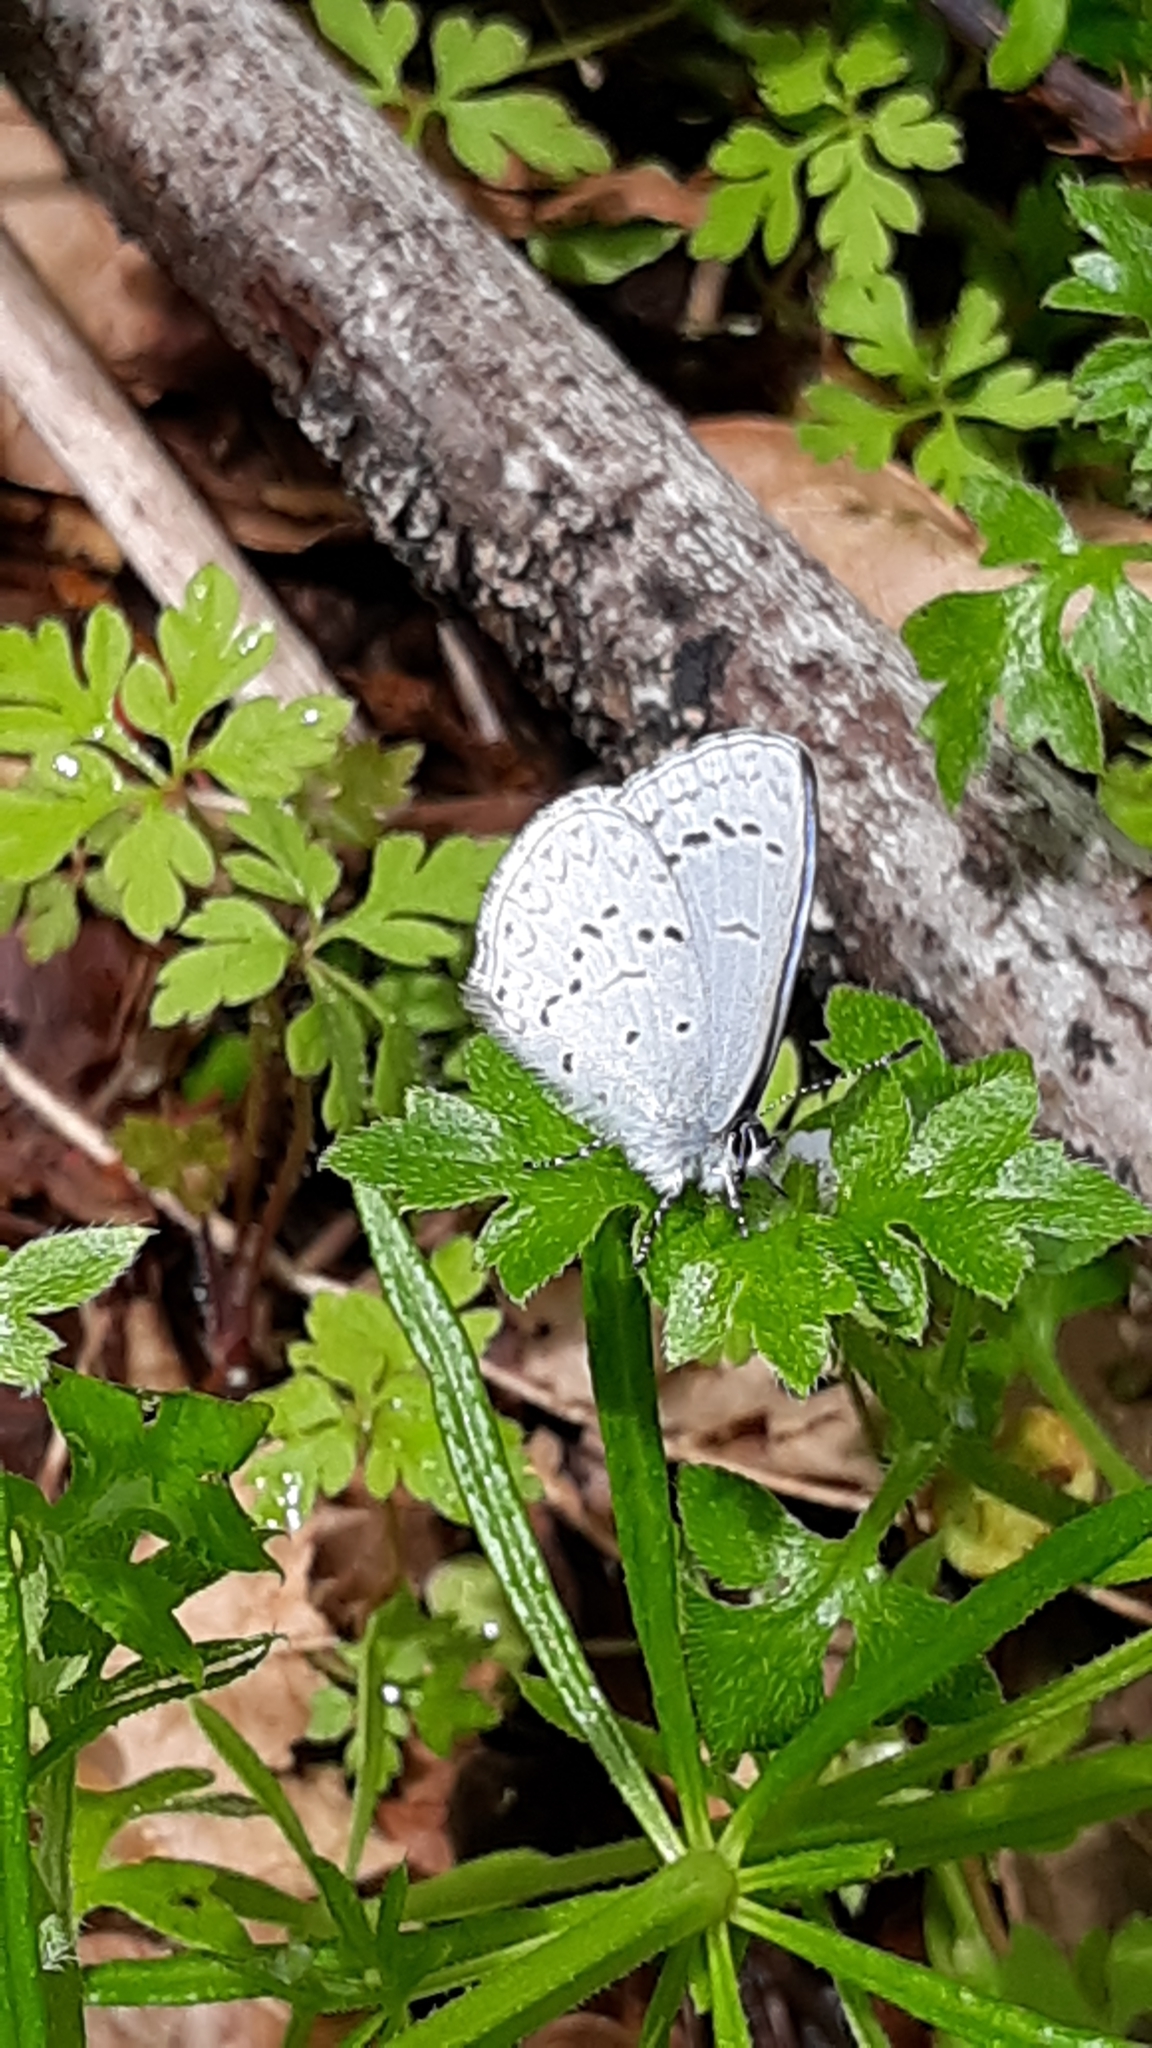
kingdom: Animalia
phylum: Arthropoda
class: Insecta
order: Lepidoptera
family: Lycaenidae
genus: Celastrina
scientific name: Celastrina ladon
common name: Spring azure
